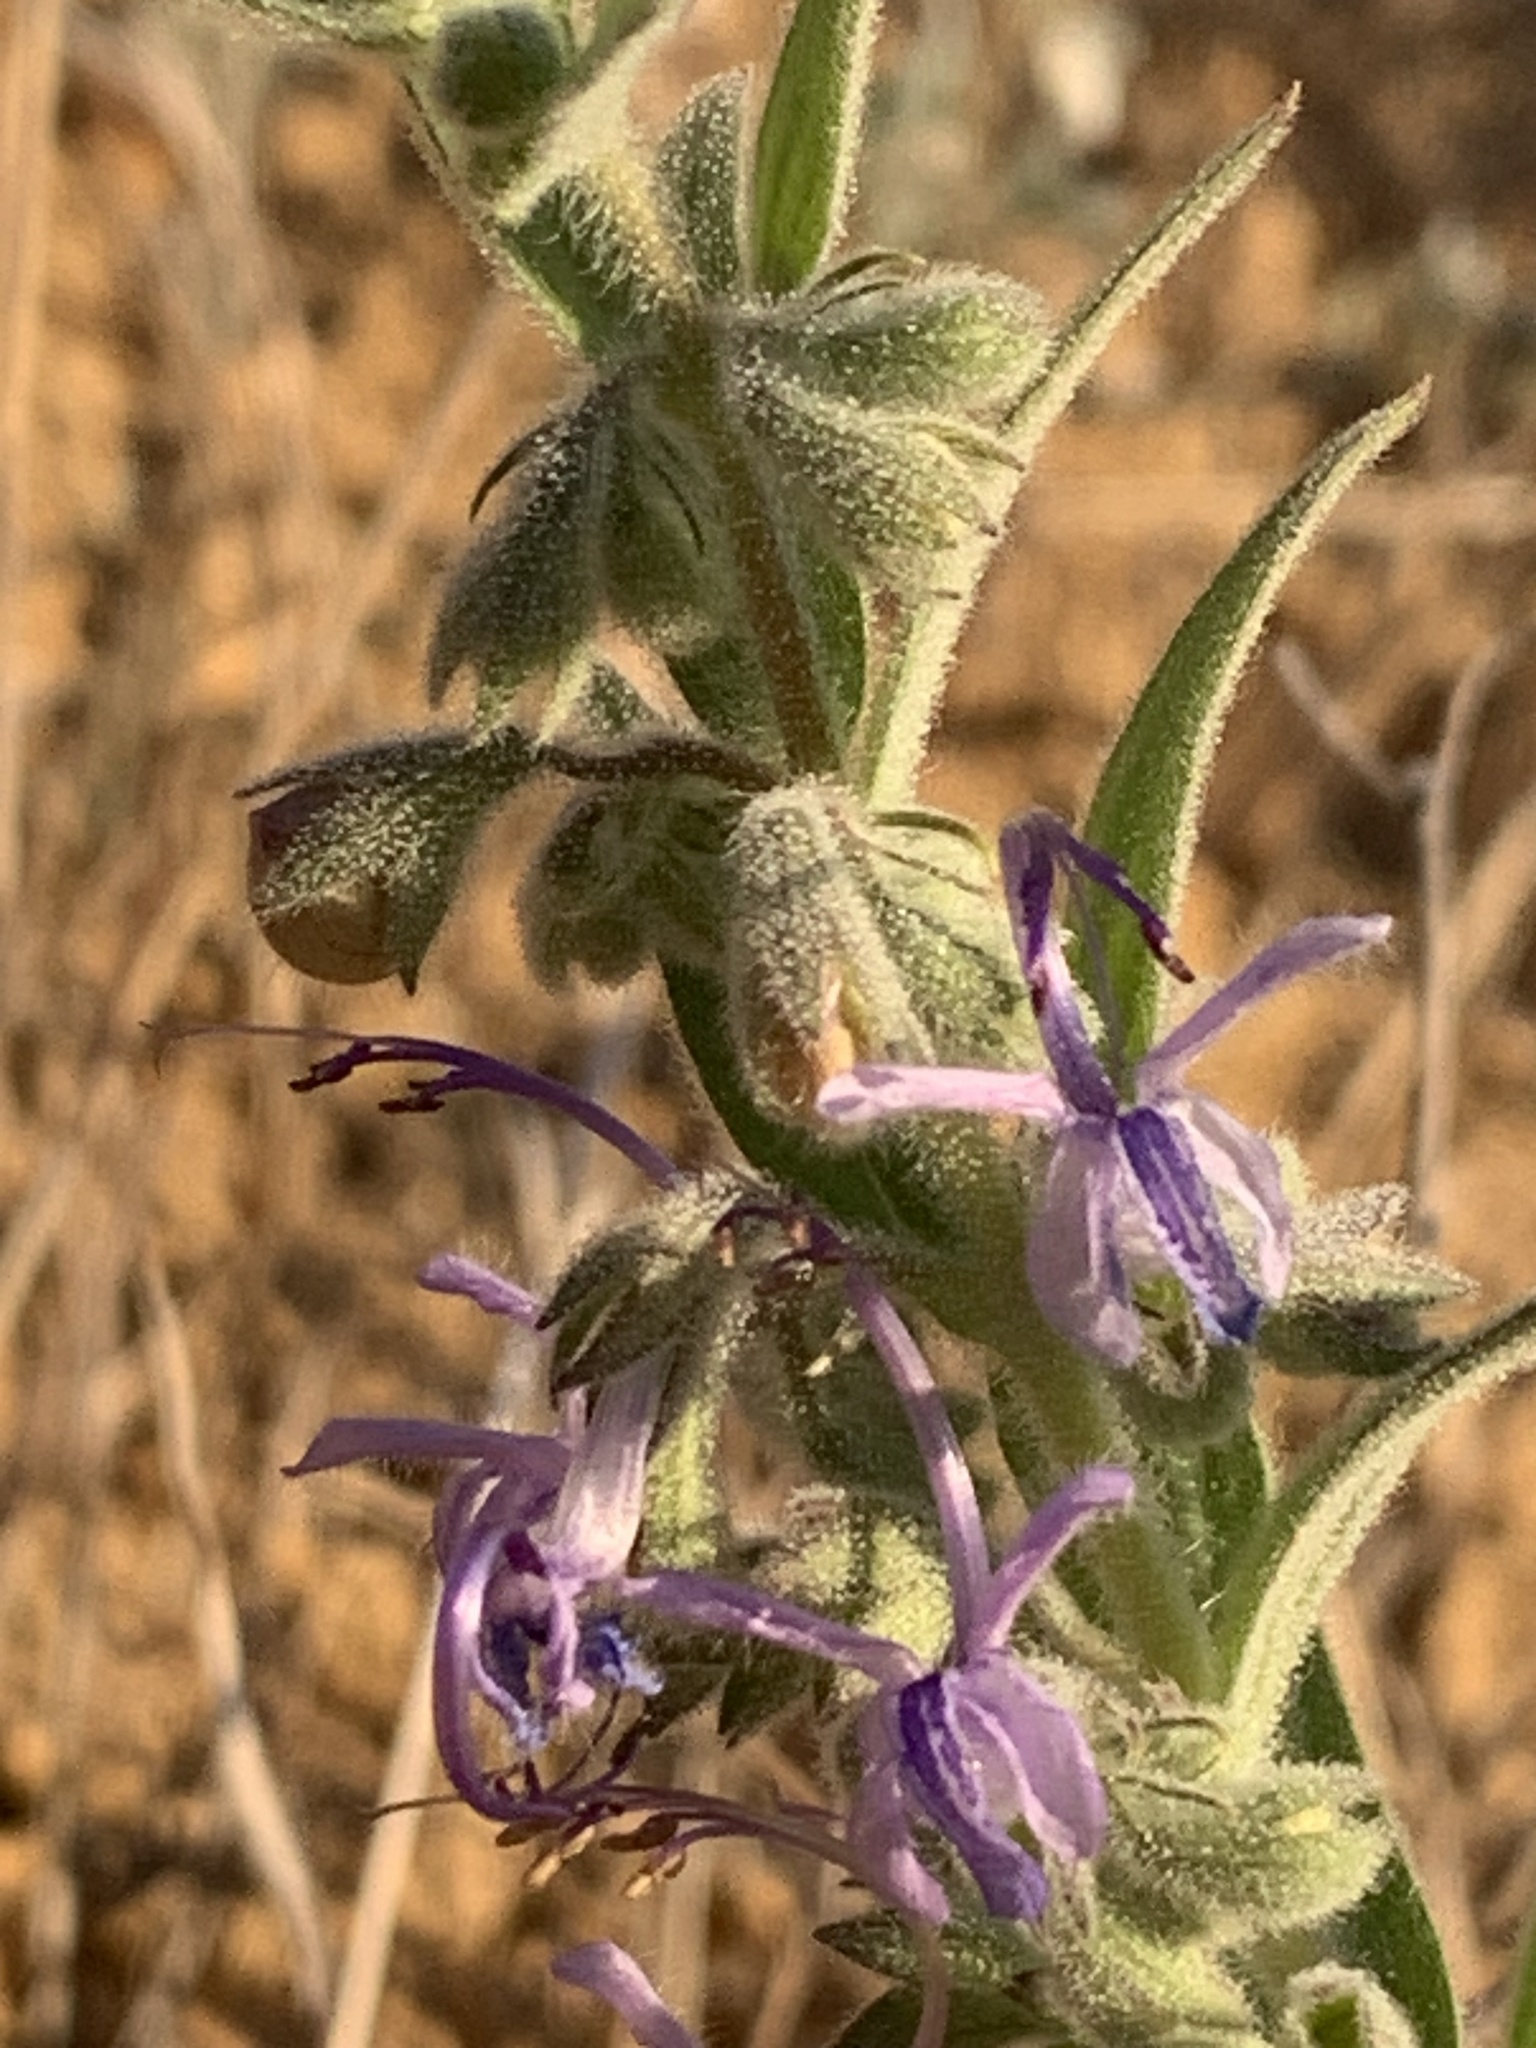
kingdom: Plantae
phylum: Tracheophyta
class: Magnoliopsida
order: Lamiales
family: Lamiaceae
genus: Trichostema
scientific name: Trichostema lanceolatum
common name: Vinegar-weed
